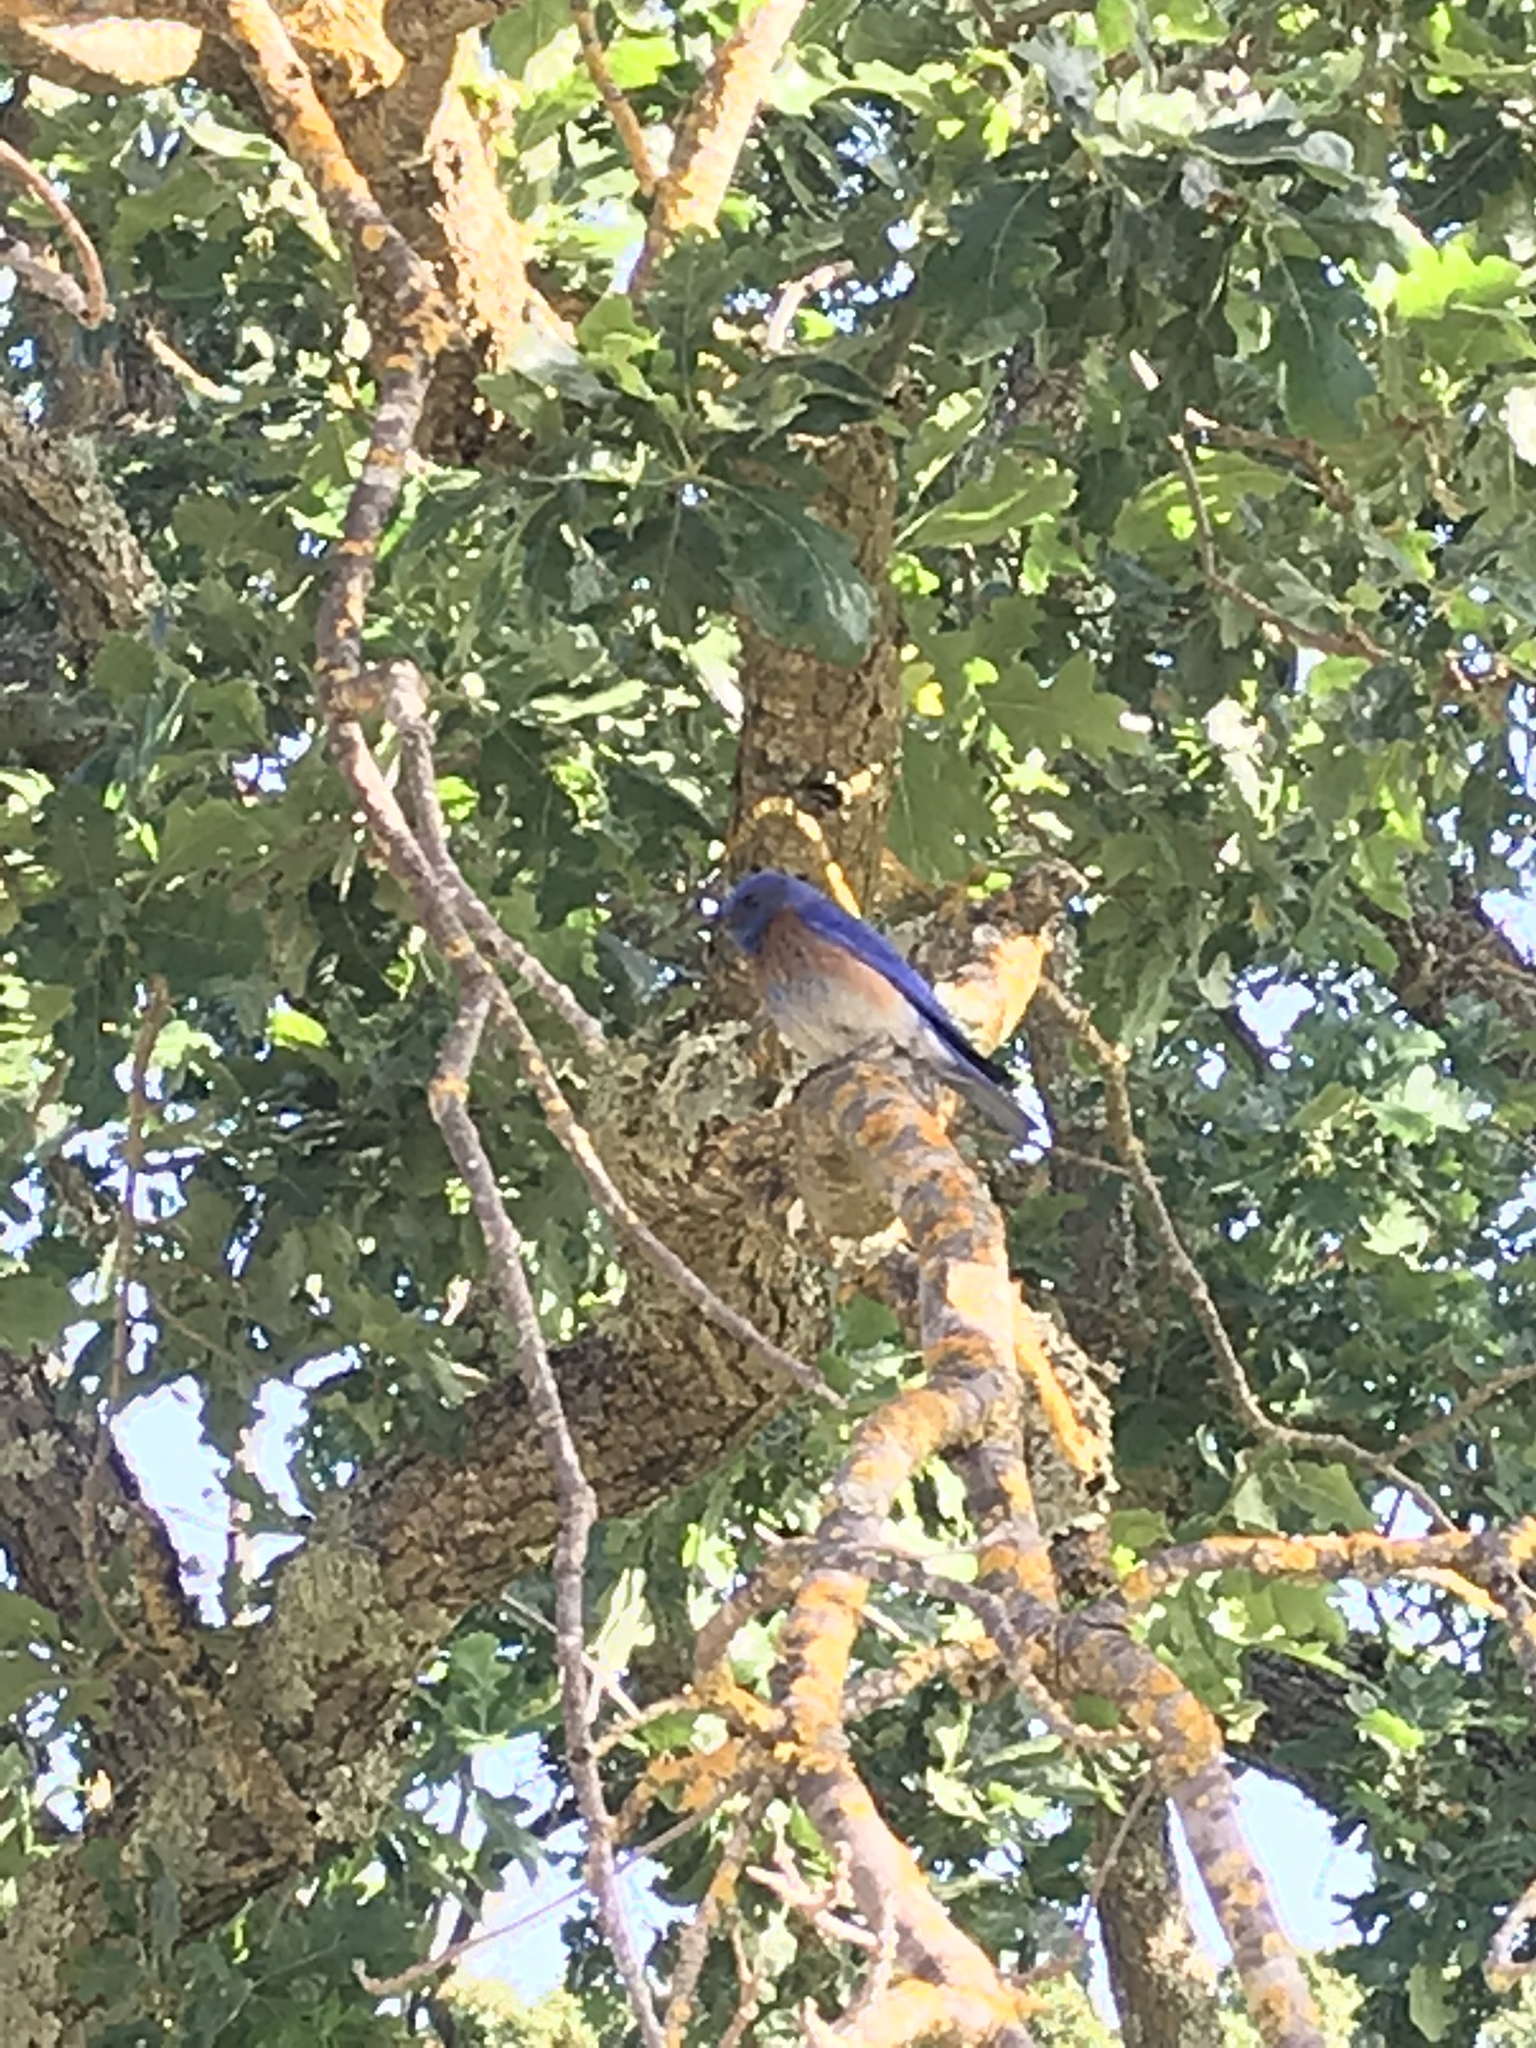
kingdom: Animalia
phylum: Chordata
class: Aves
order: Passeriformes
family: Turdidae
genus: Sialia
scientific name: Sialia mexicana
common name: Western bluebird
